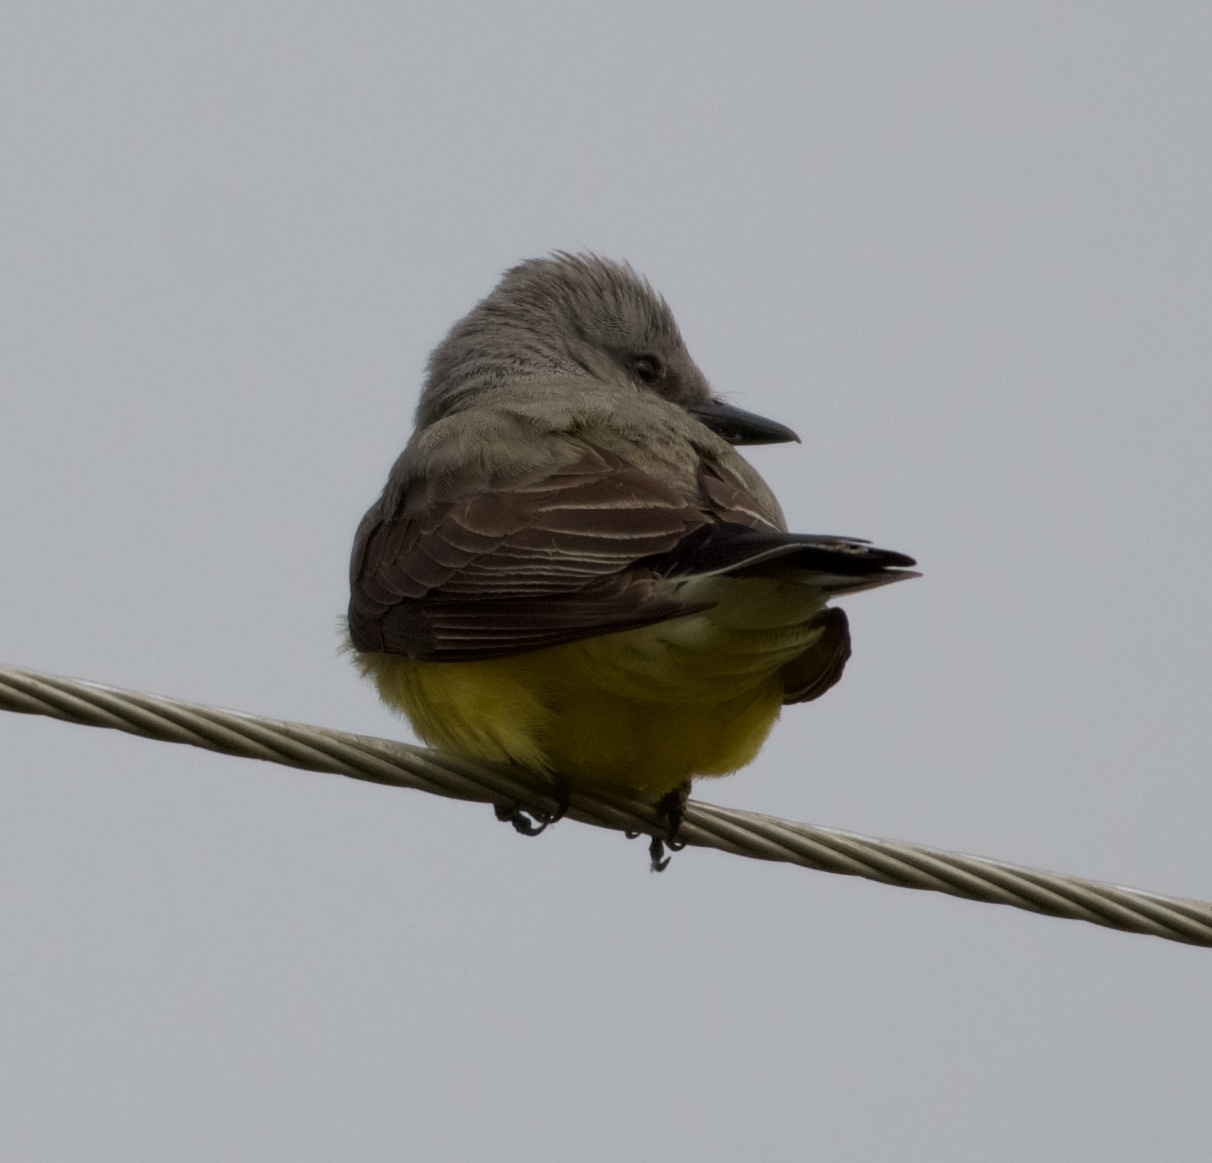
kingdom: Animalia
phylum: Chordata
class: Aves
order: Passeriformes
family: Tyrannidae
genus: Tyrannus
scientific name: Tyrannus verticalis
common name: Western kingbird
